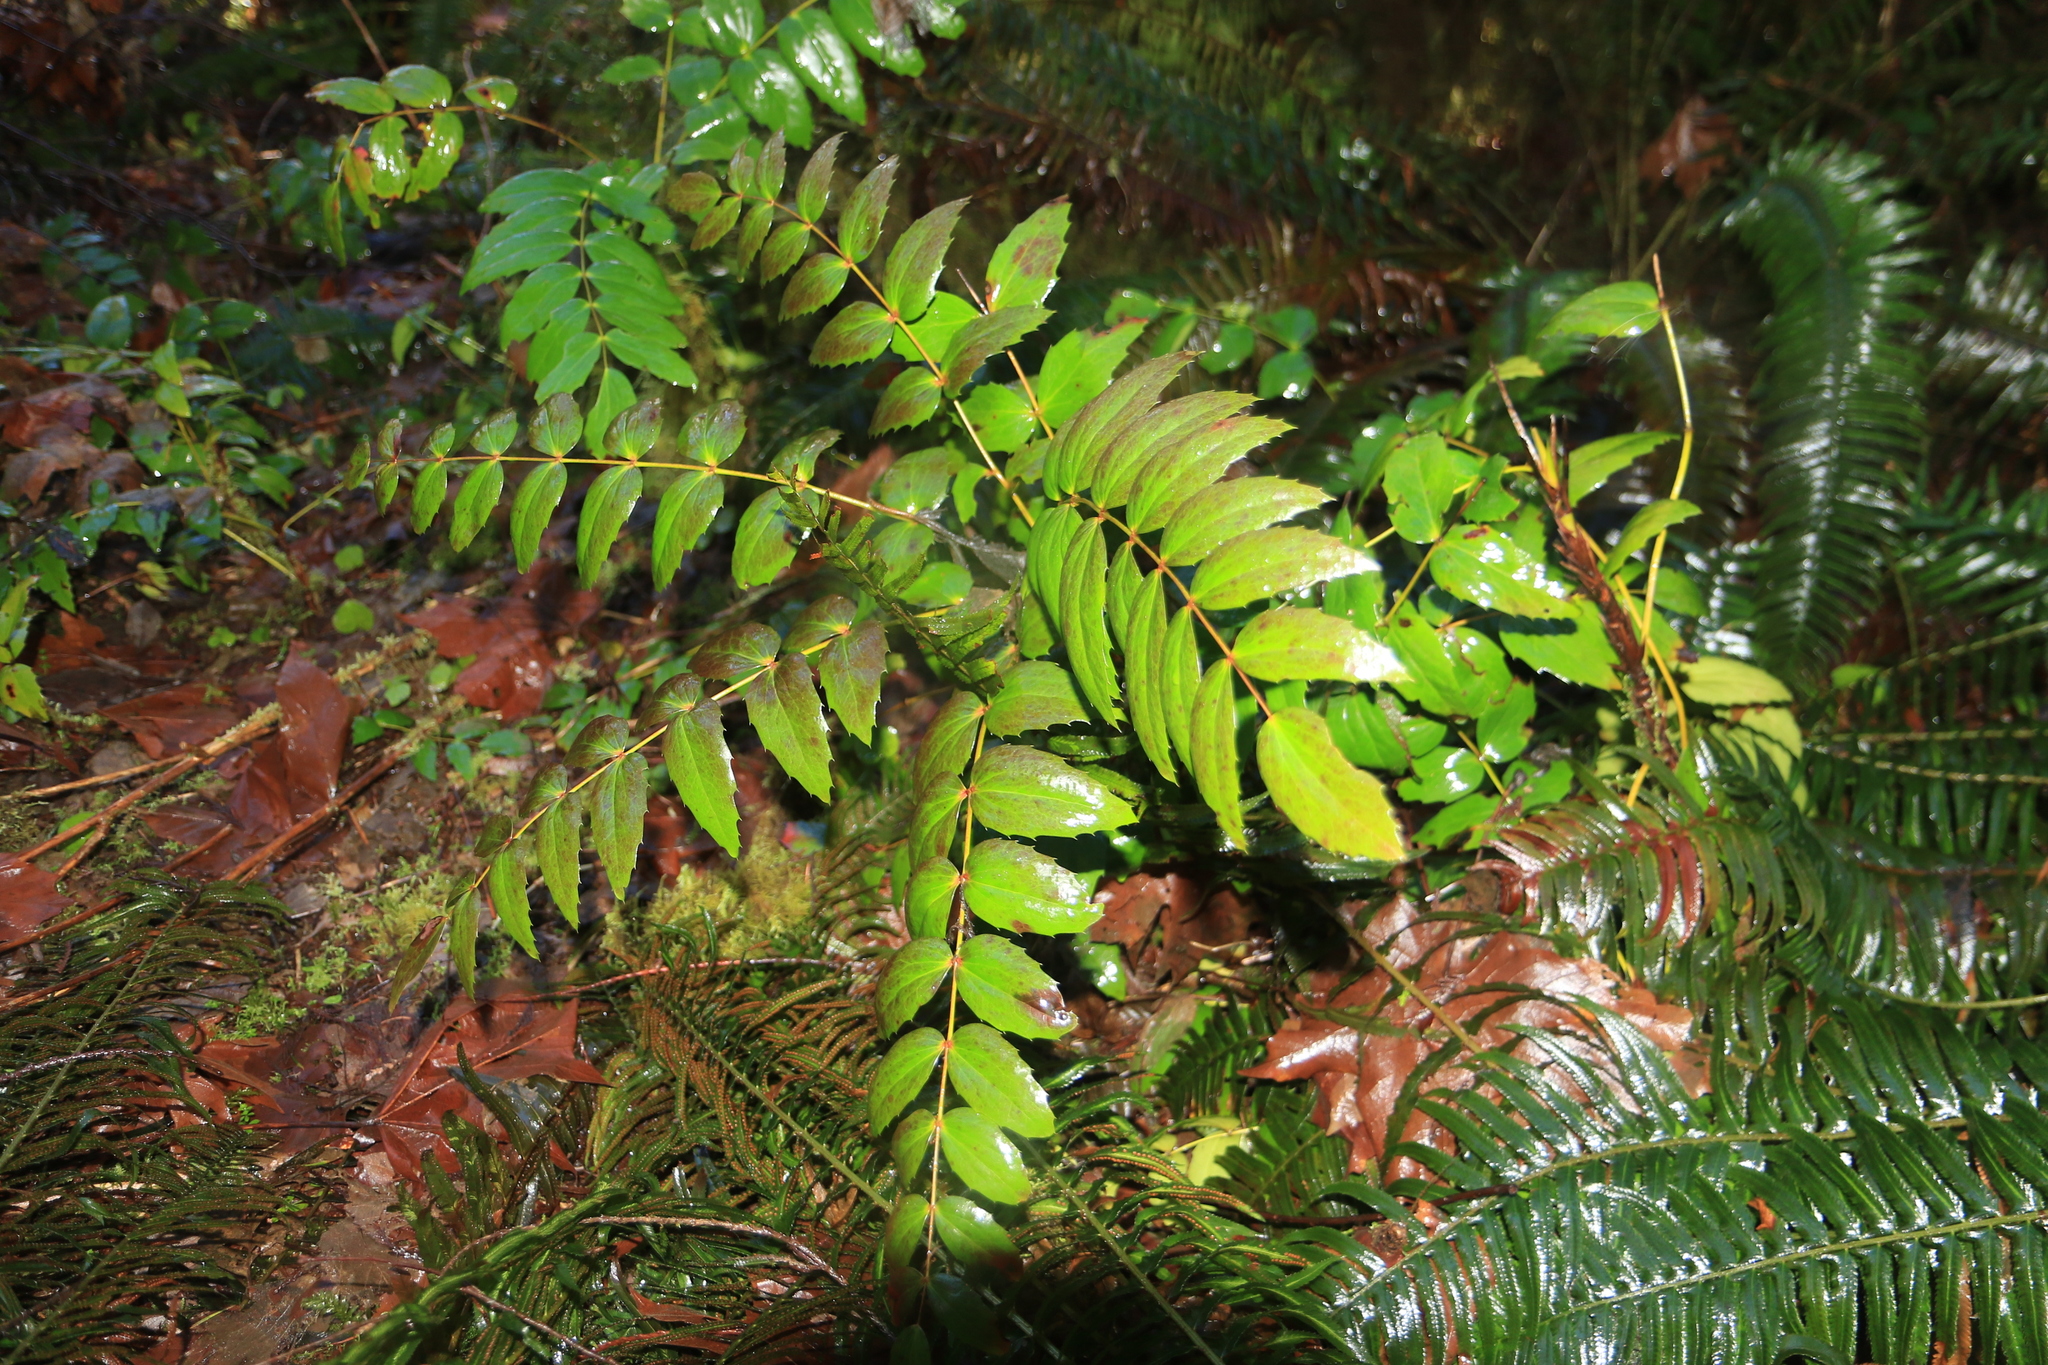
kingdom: Plantae
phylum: Tracheophyta
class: Magnoliopsida
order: Ranunculales
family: Berberidaceae
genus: Mahonia
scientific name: Mahonia nervosa
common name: Cascade oregon-grape
